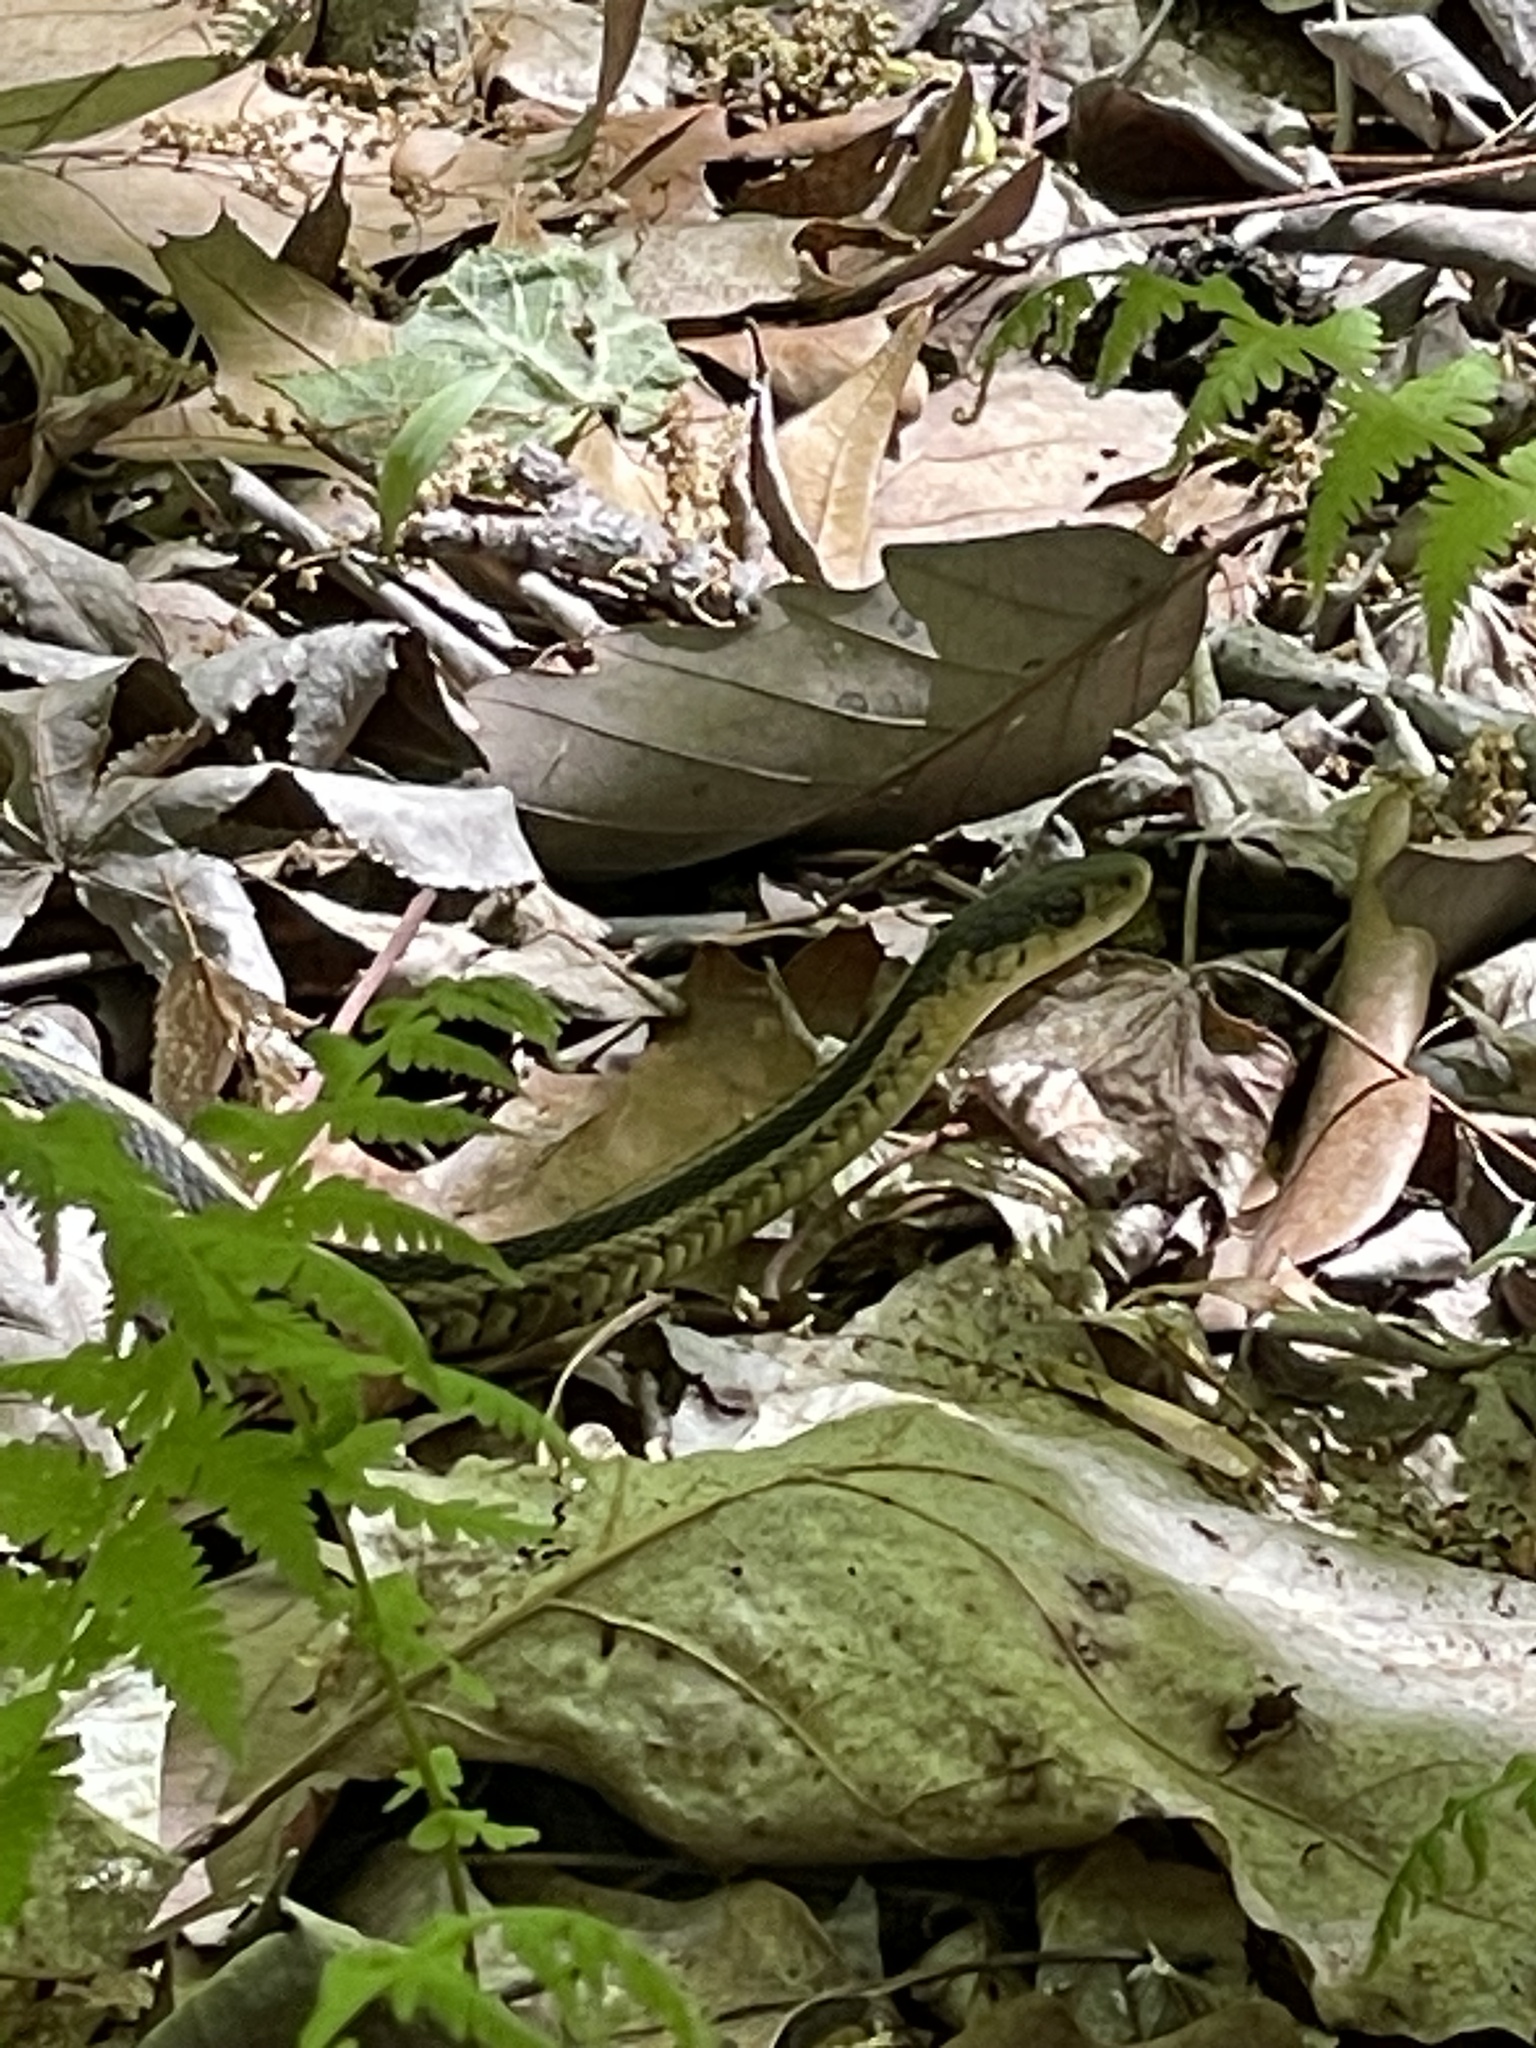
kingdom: Animalia
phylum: Chordata
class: Squamata
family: Colubridae
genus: Thamnophis
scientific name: Thamnophis sirtalis
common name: Common garter snake
